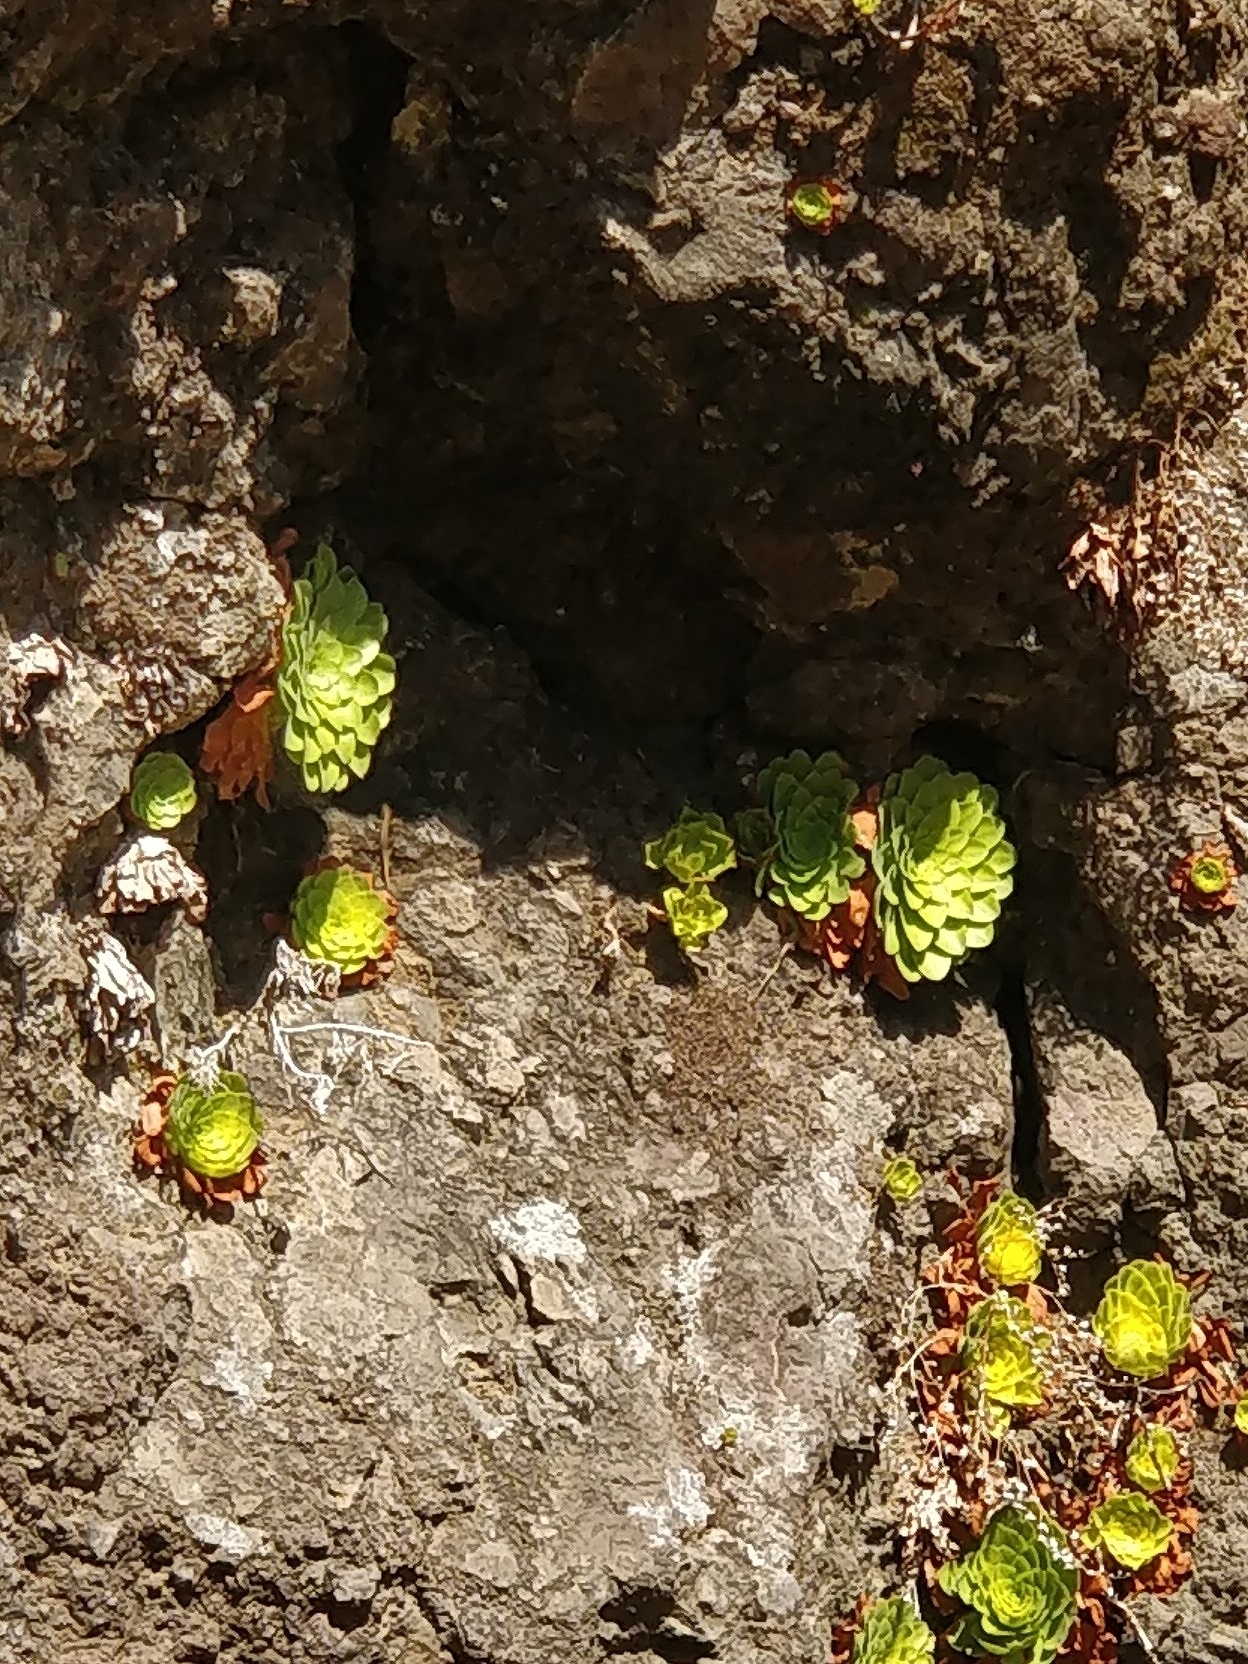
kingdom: Plantae
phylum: Tracheophyta
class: Magnoliopsida
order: Saxifragales
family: Crassulaceae
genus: Aeonium
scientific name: Aeonium glandulosum
